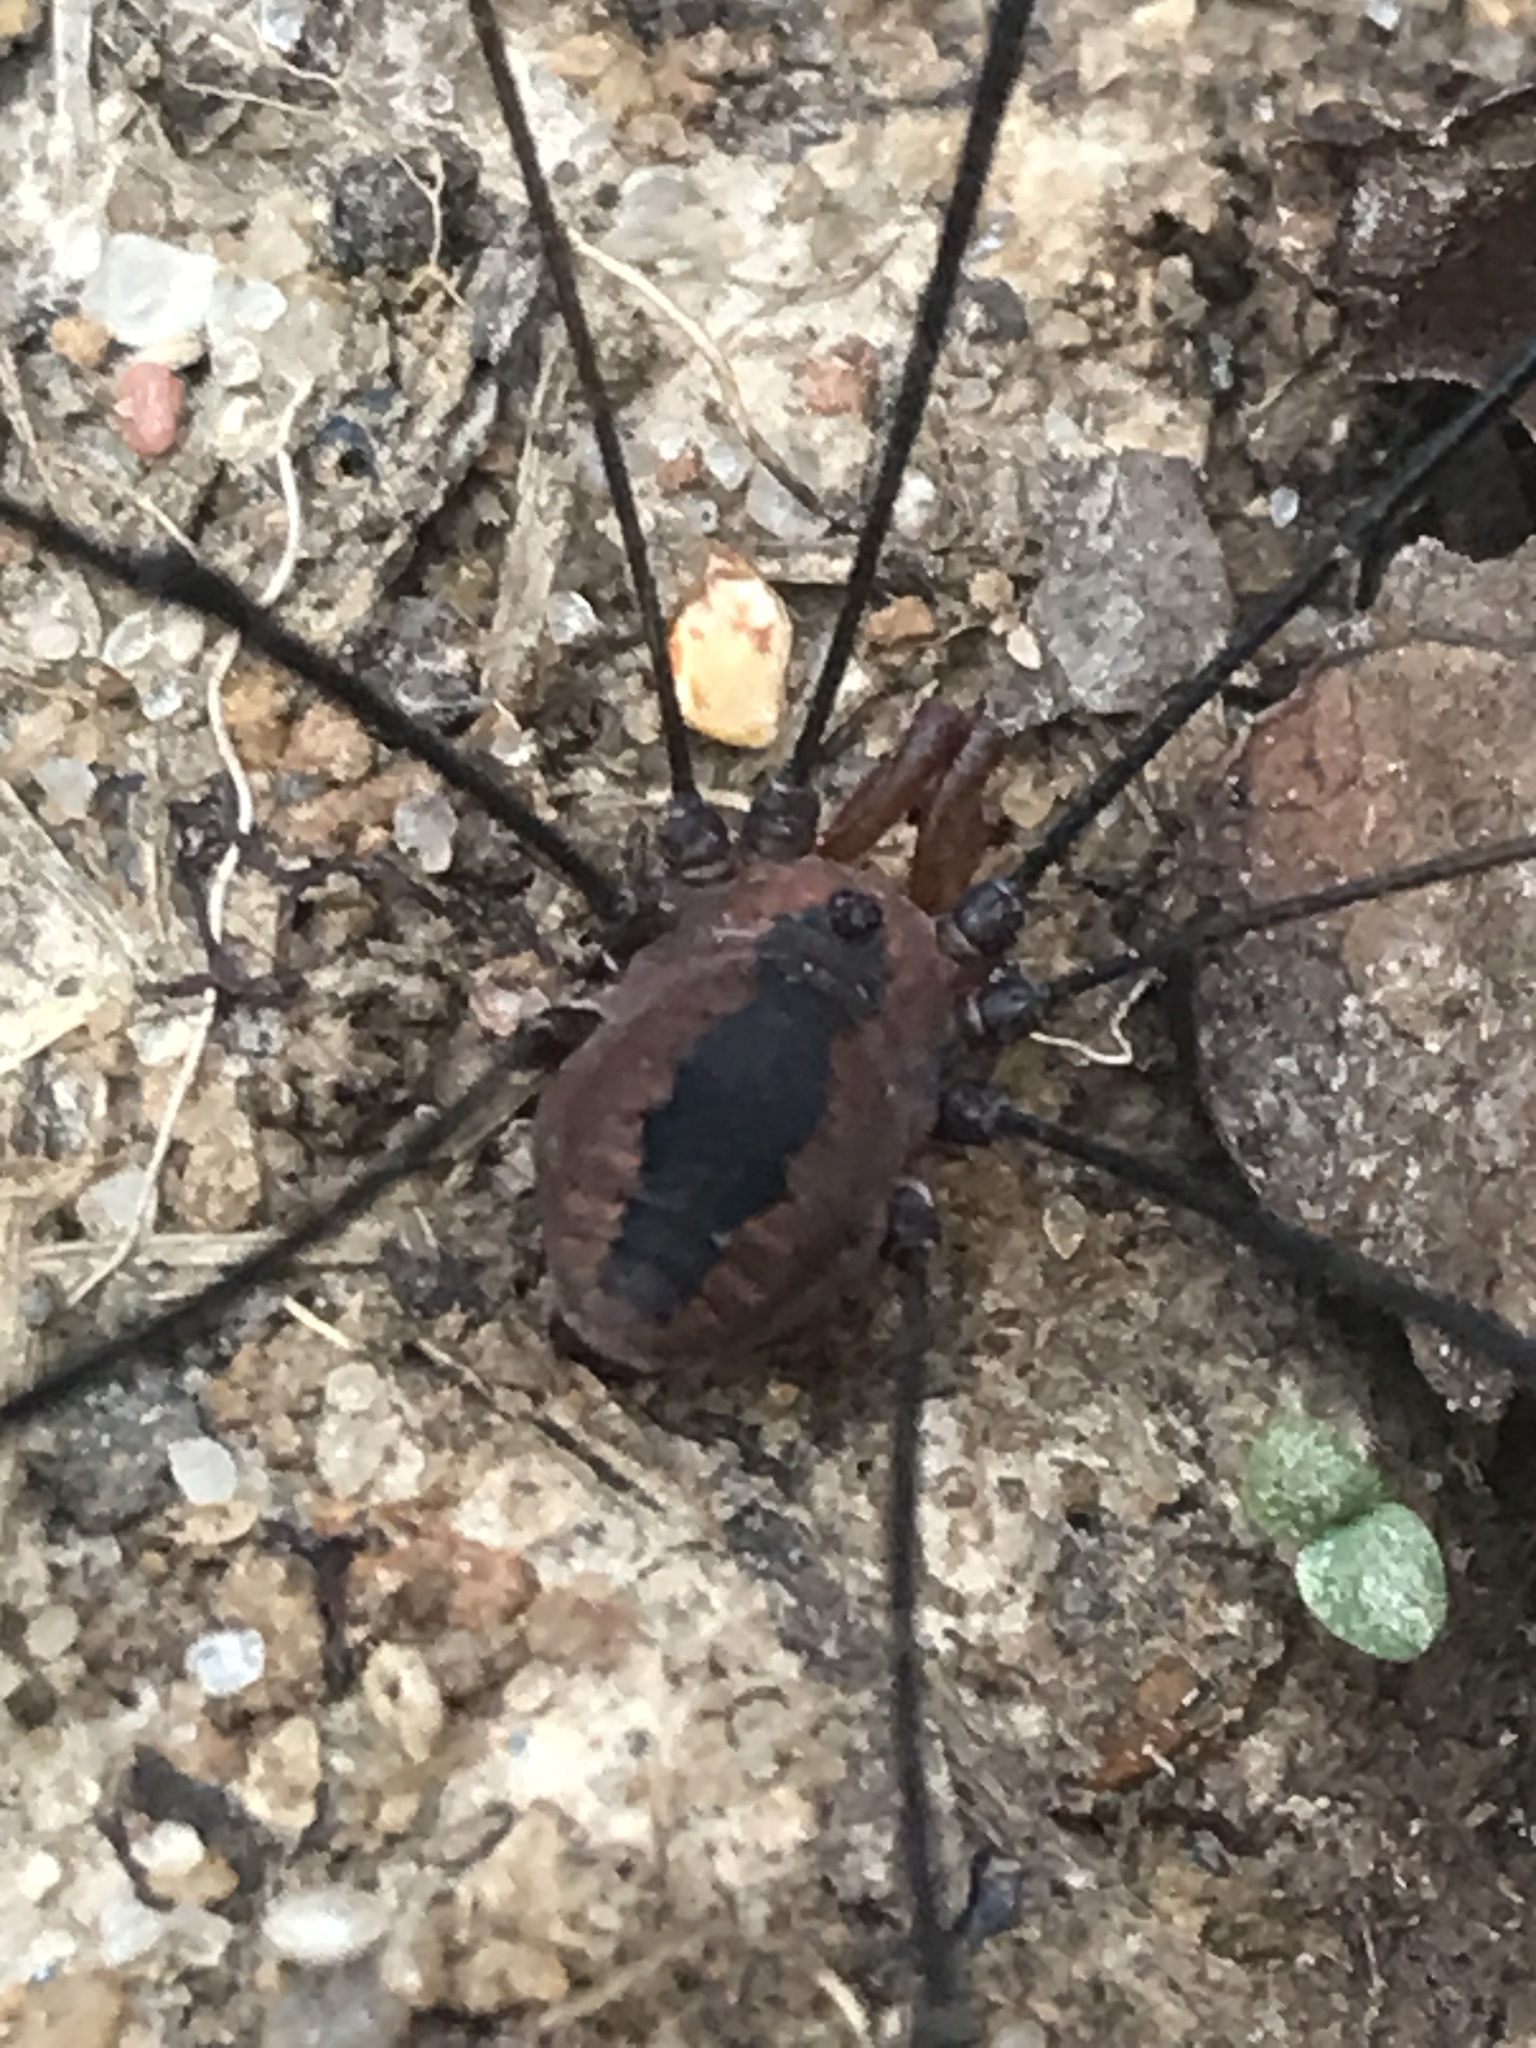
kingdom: Animalia
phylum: Arthropoda
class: Arachnida
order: Opiliones
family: Sclerosomatidae
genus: Leiobunum
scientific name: Leiobunum vittatum
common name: Eastern harvestman
